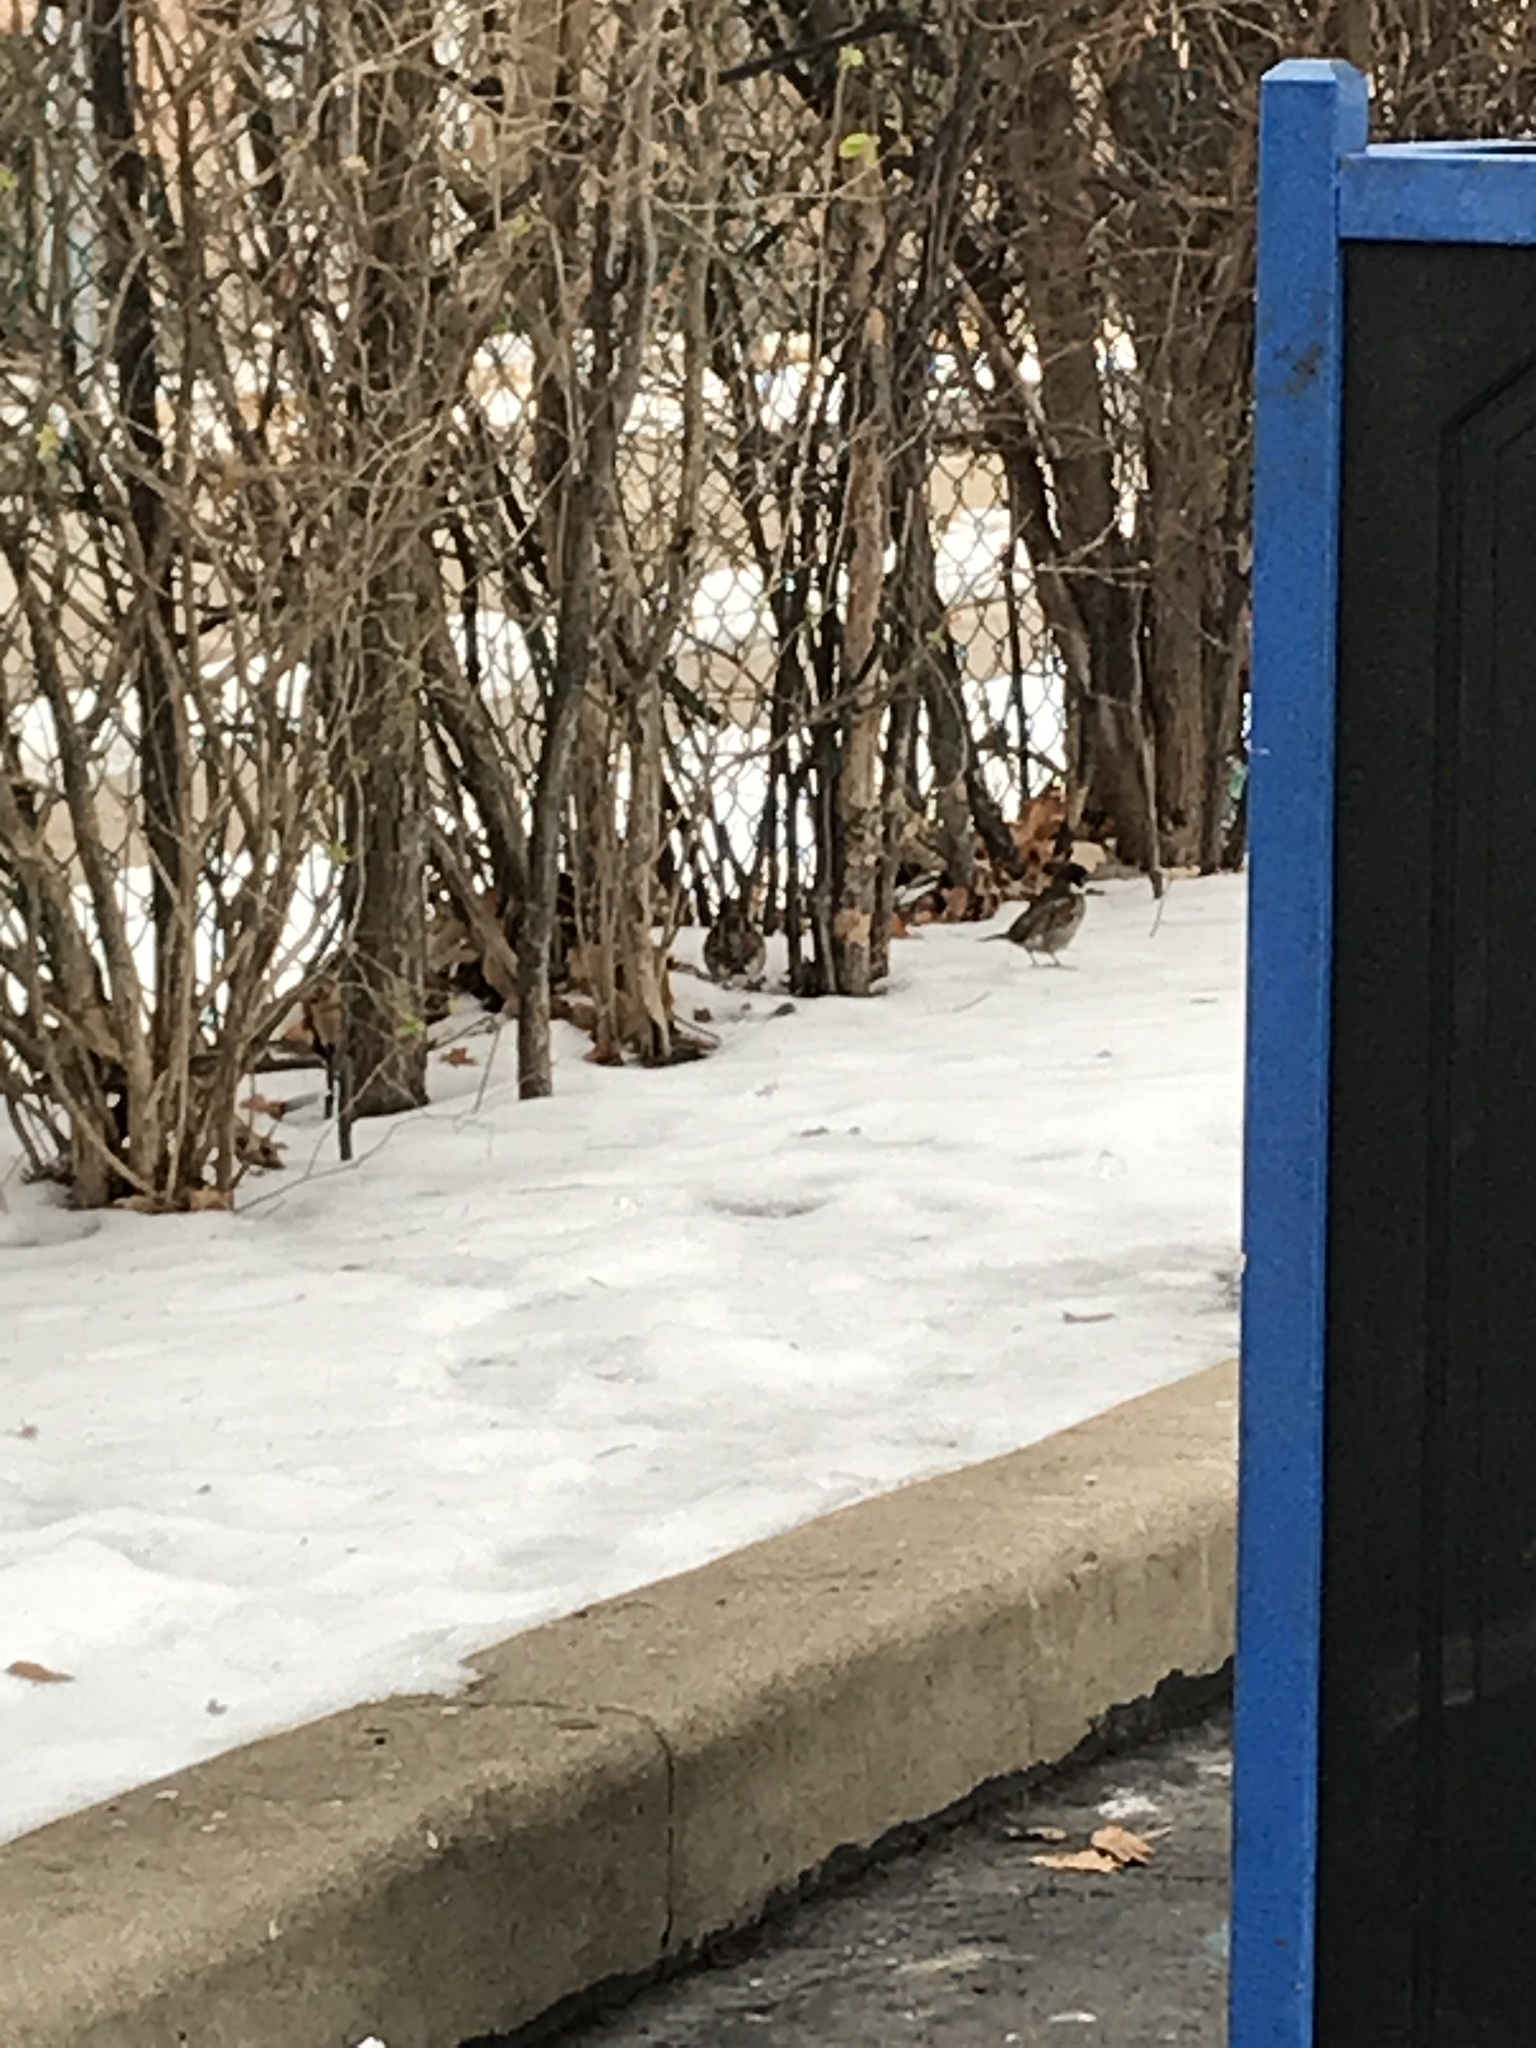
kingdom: Animalia
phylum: Chordata
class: Aves
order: Passeriformes
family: Passeridae
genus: Passer
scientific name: Passer domesticus
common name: House sparrow
